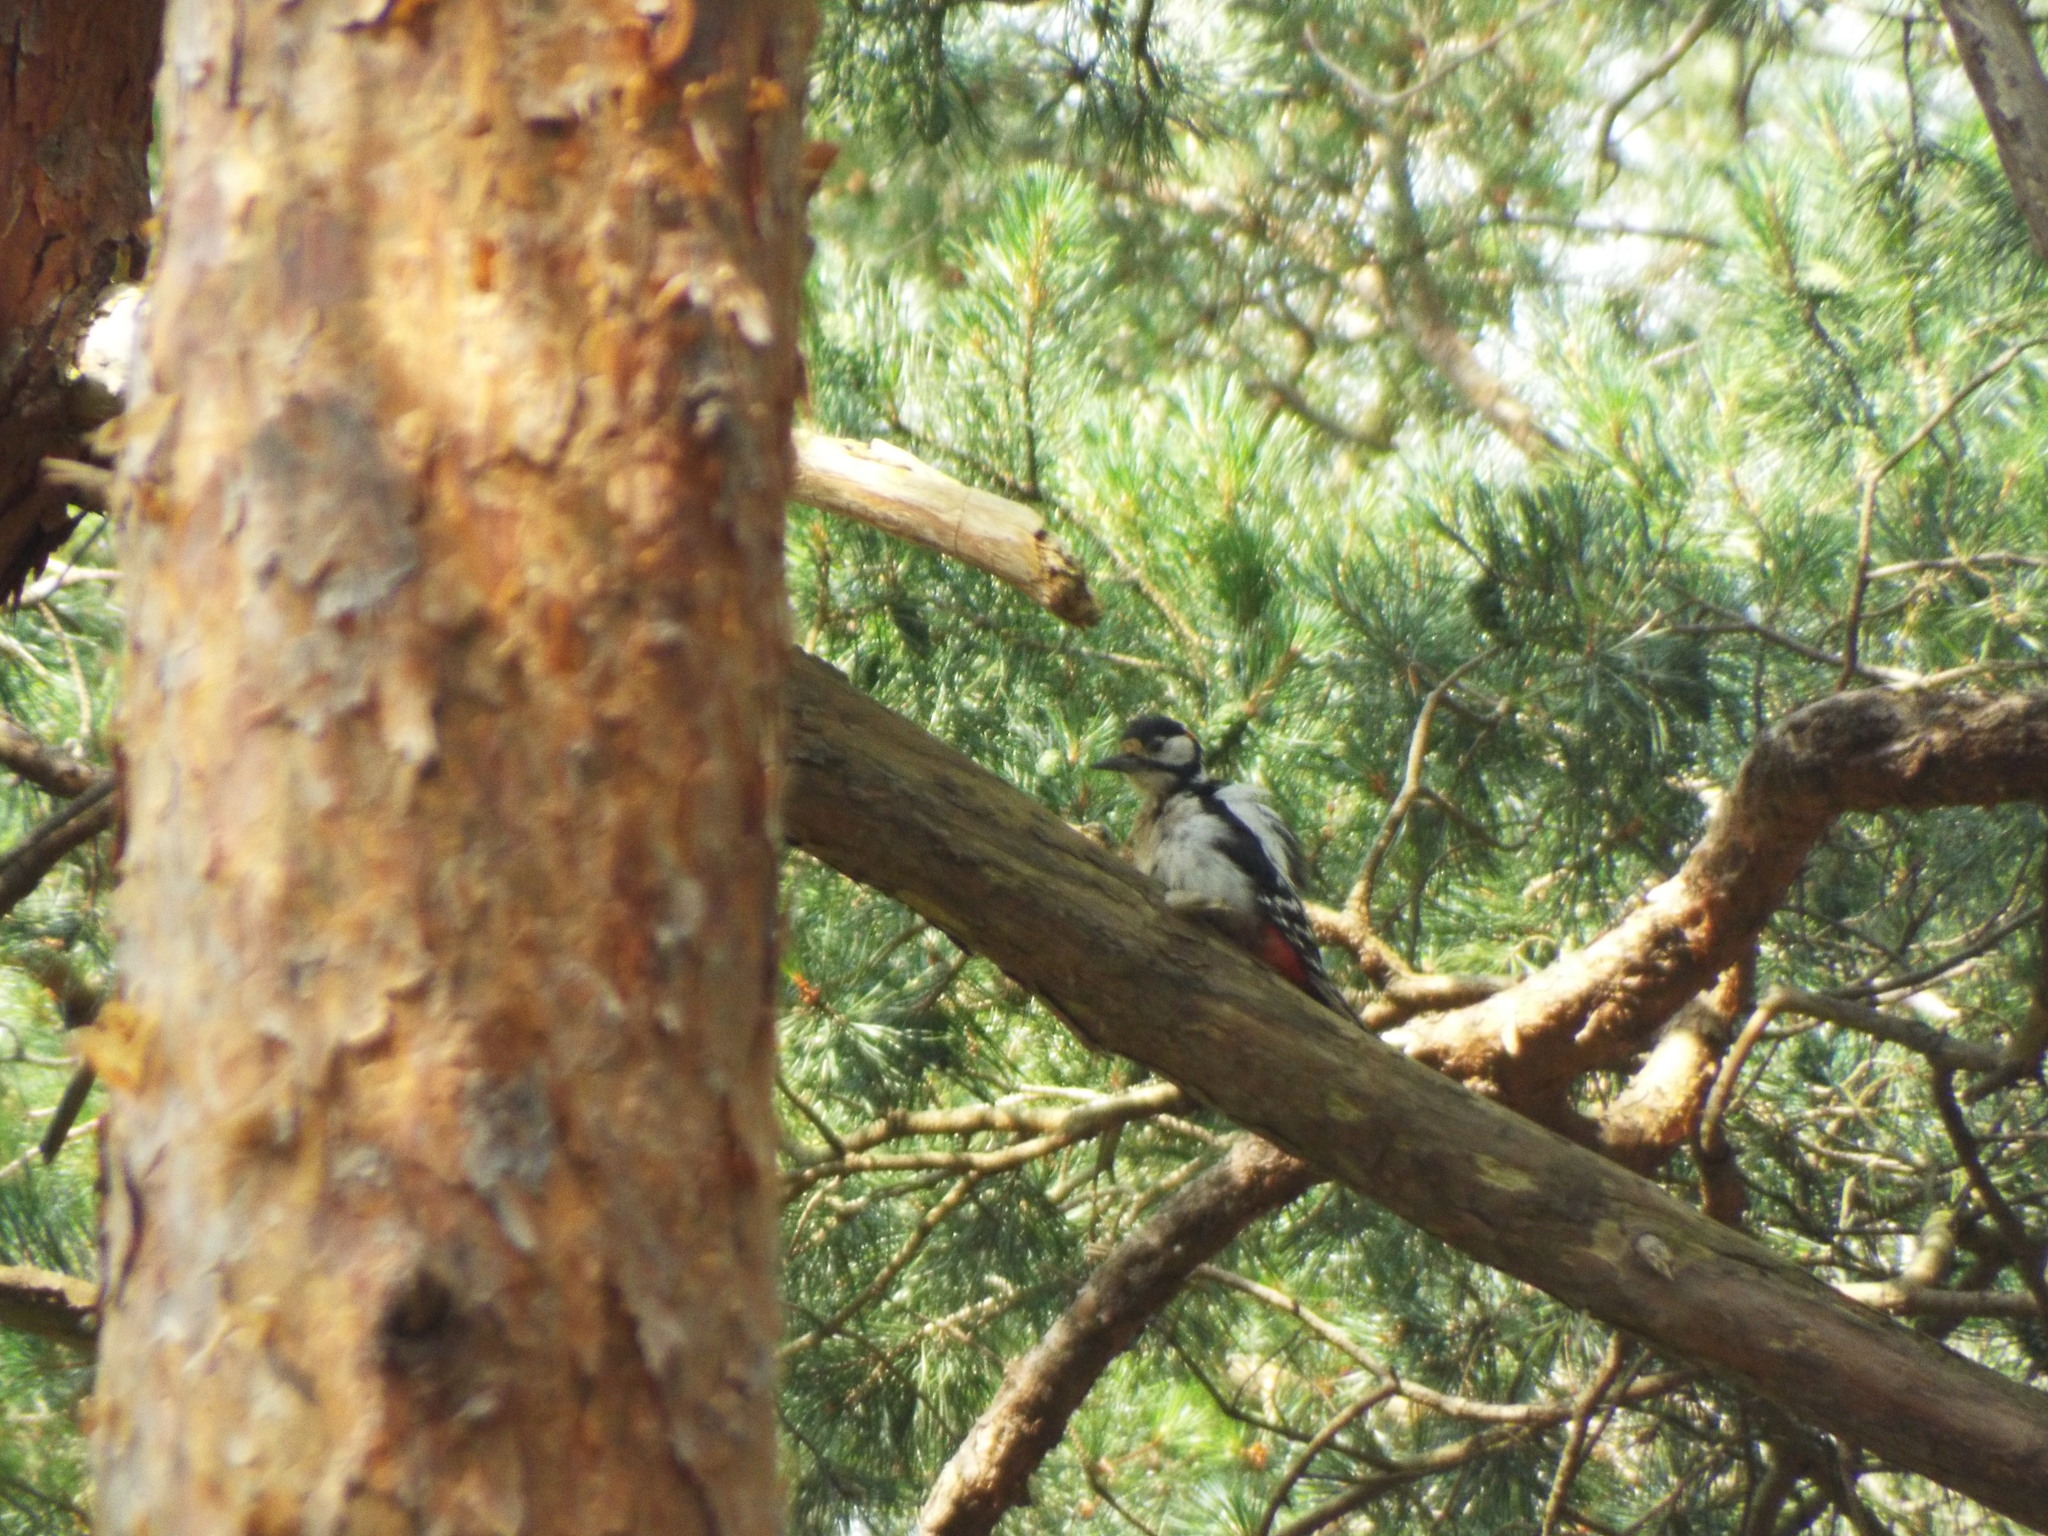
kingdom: Animalia
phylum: Chordata
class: Aves
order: Piciformes
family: Picidae
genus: Dendrocopos
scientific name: Dendrocopos major
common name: Great spotted woodpecker
